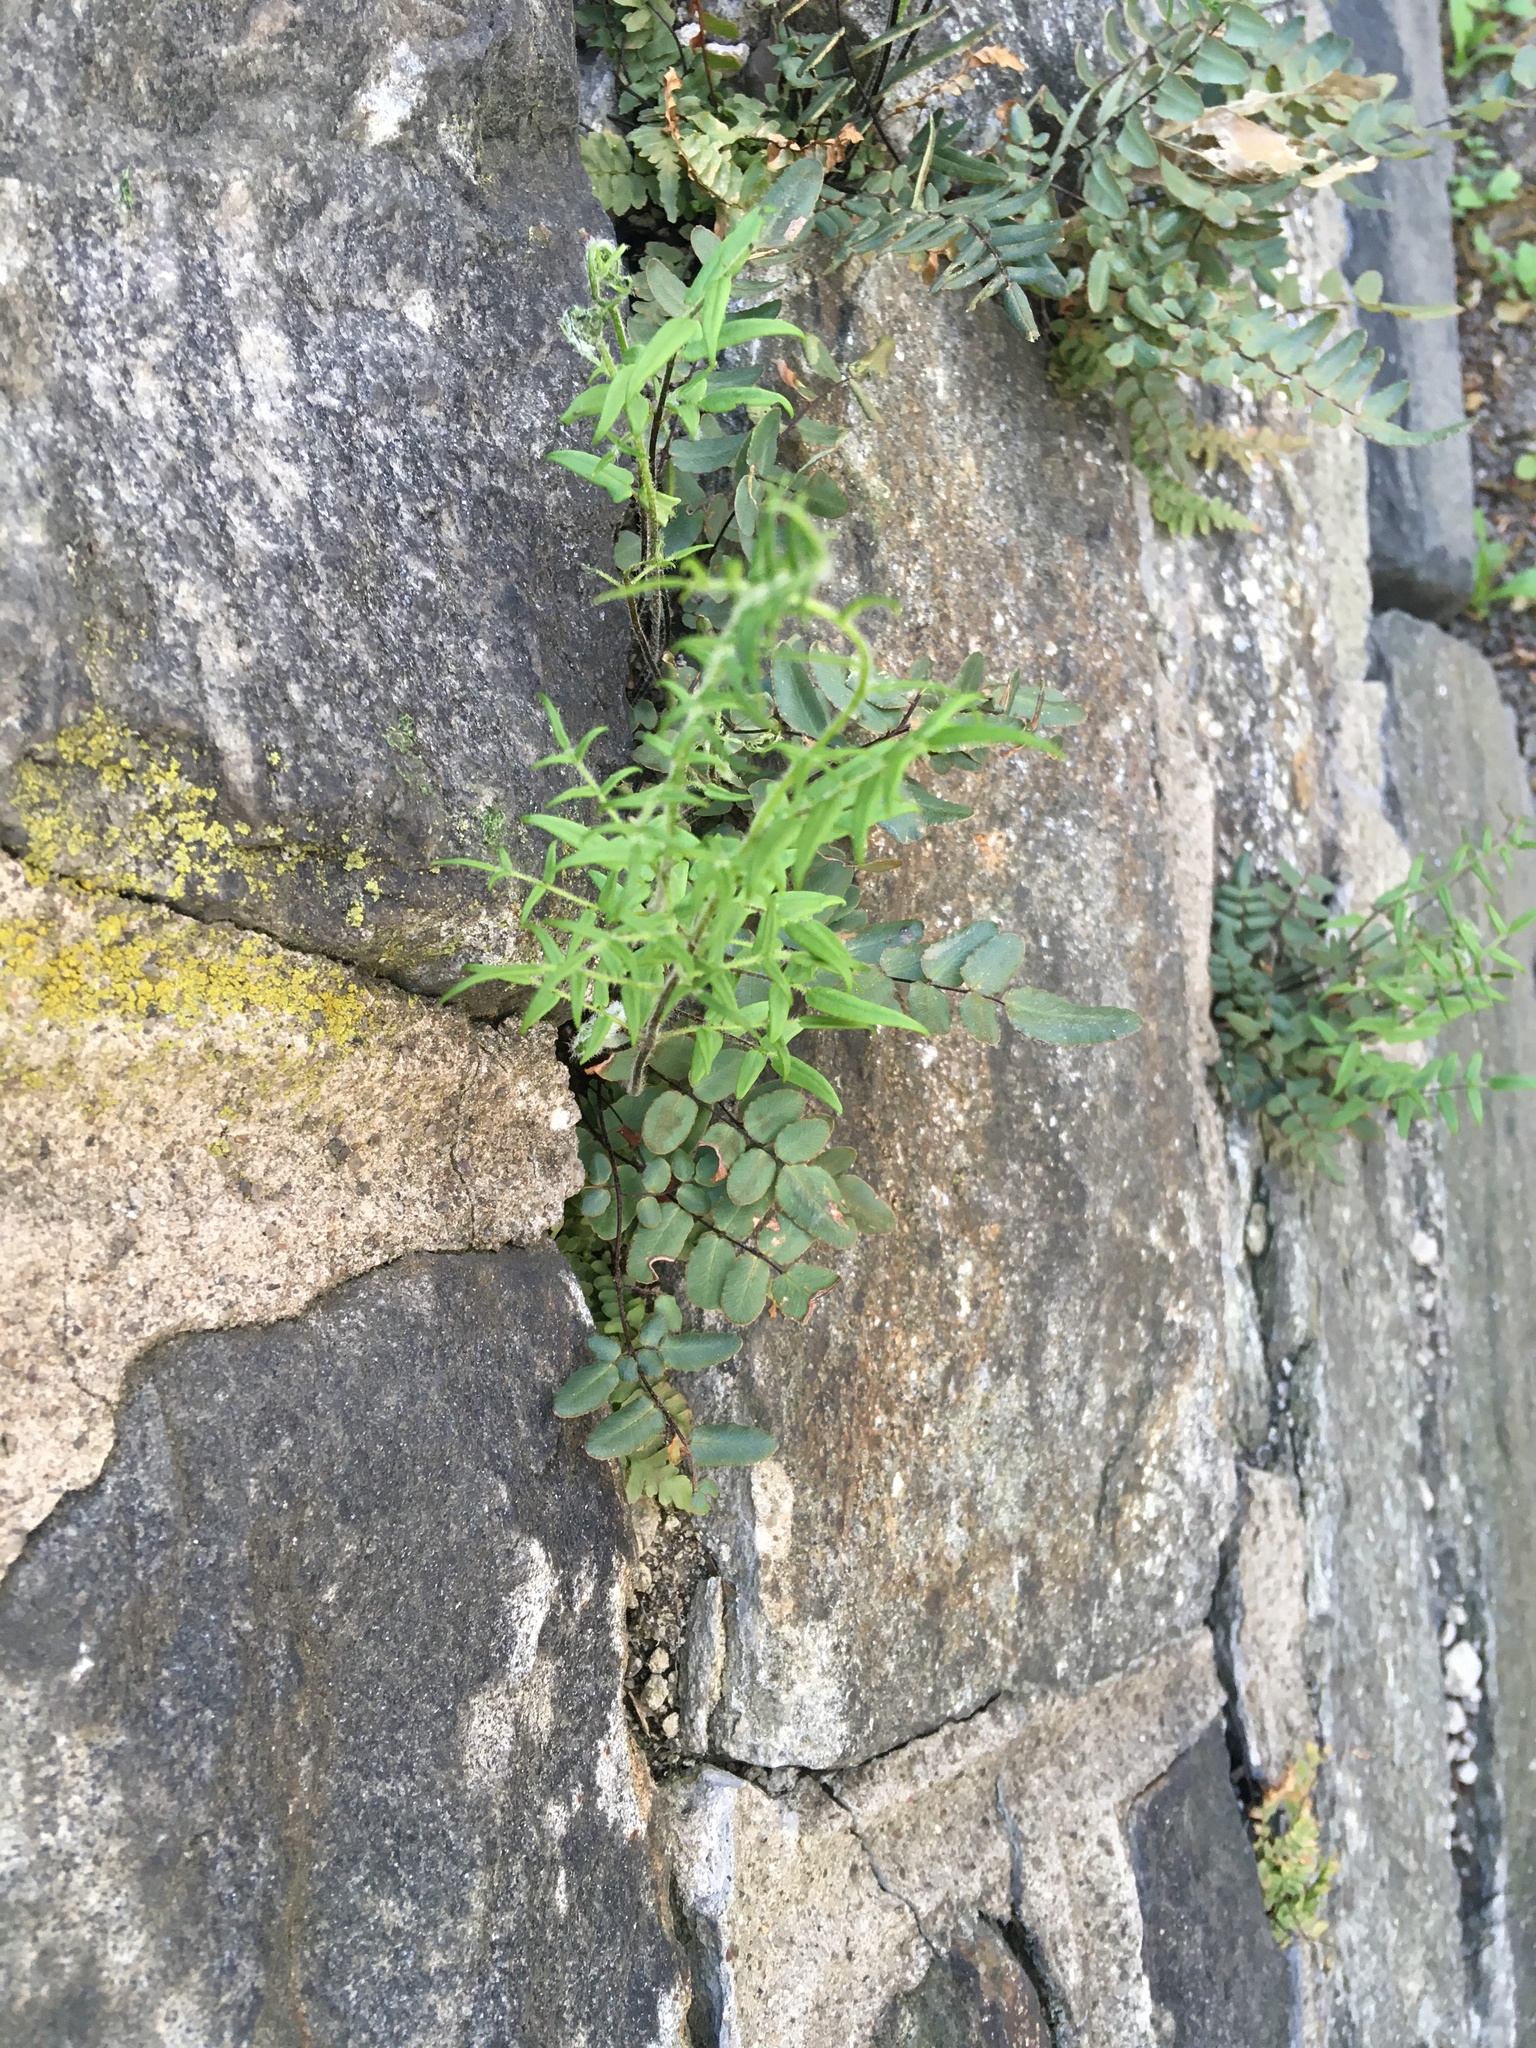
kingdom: Plantae
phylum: Tracheophyta
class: Polypodiopsida
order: Polypodiales
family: Pteridaceae
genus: Pellaea
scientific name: Pellaea atropurpurea
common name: Hairy cliffbrake
